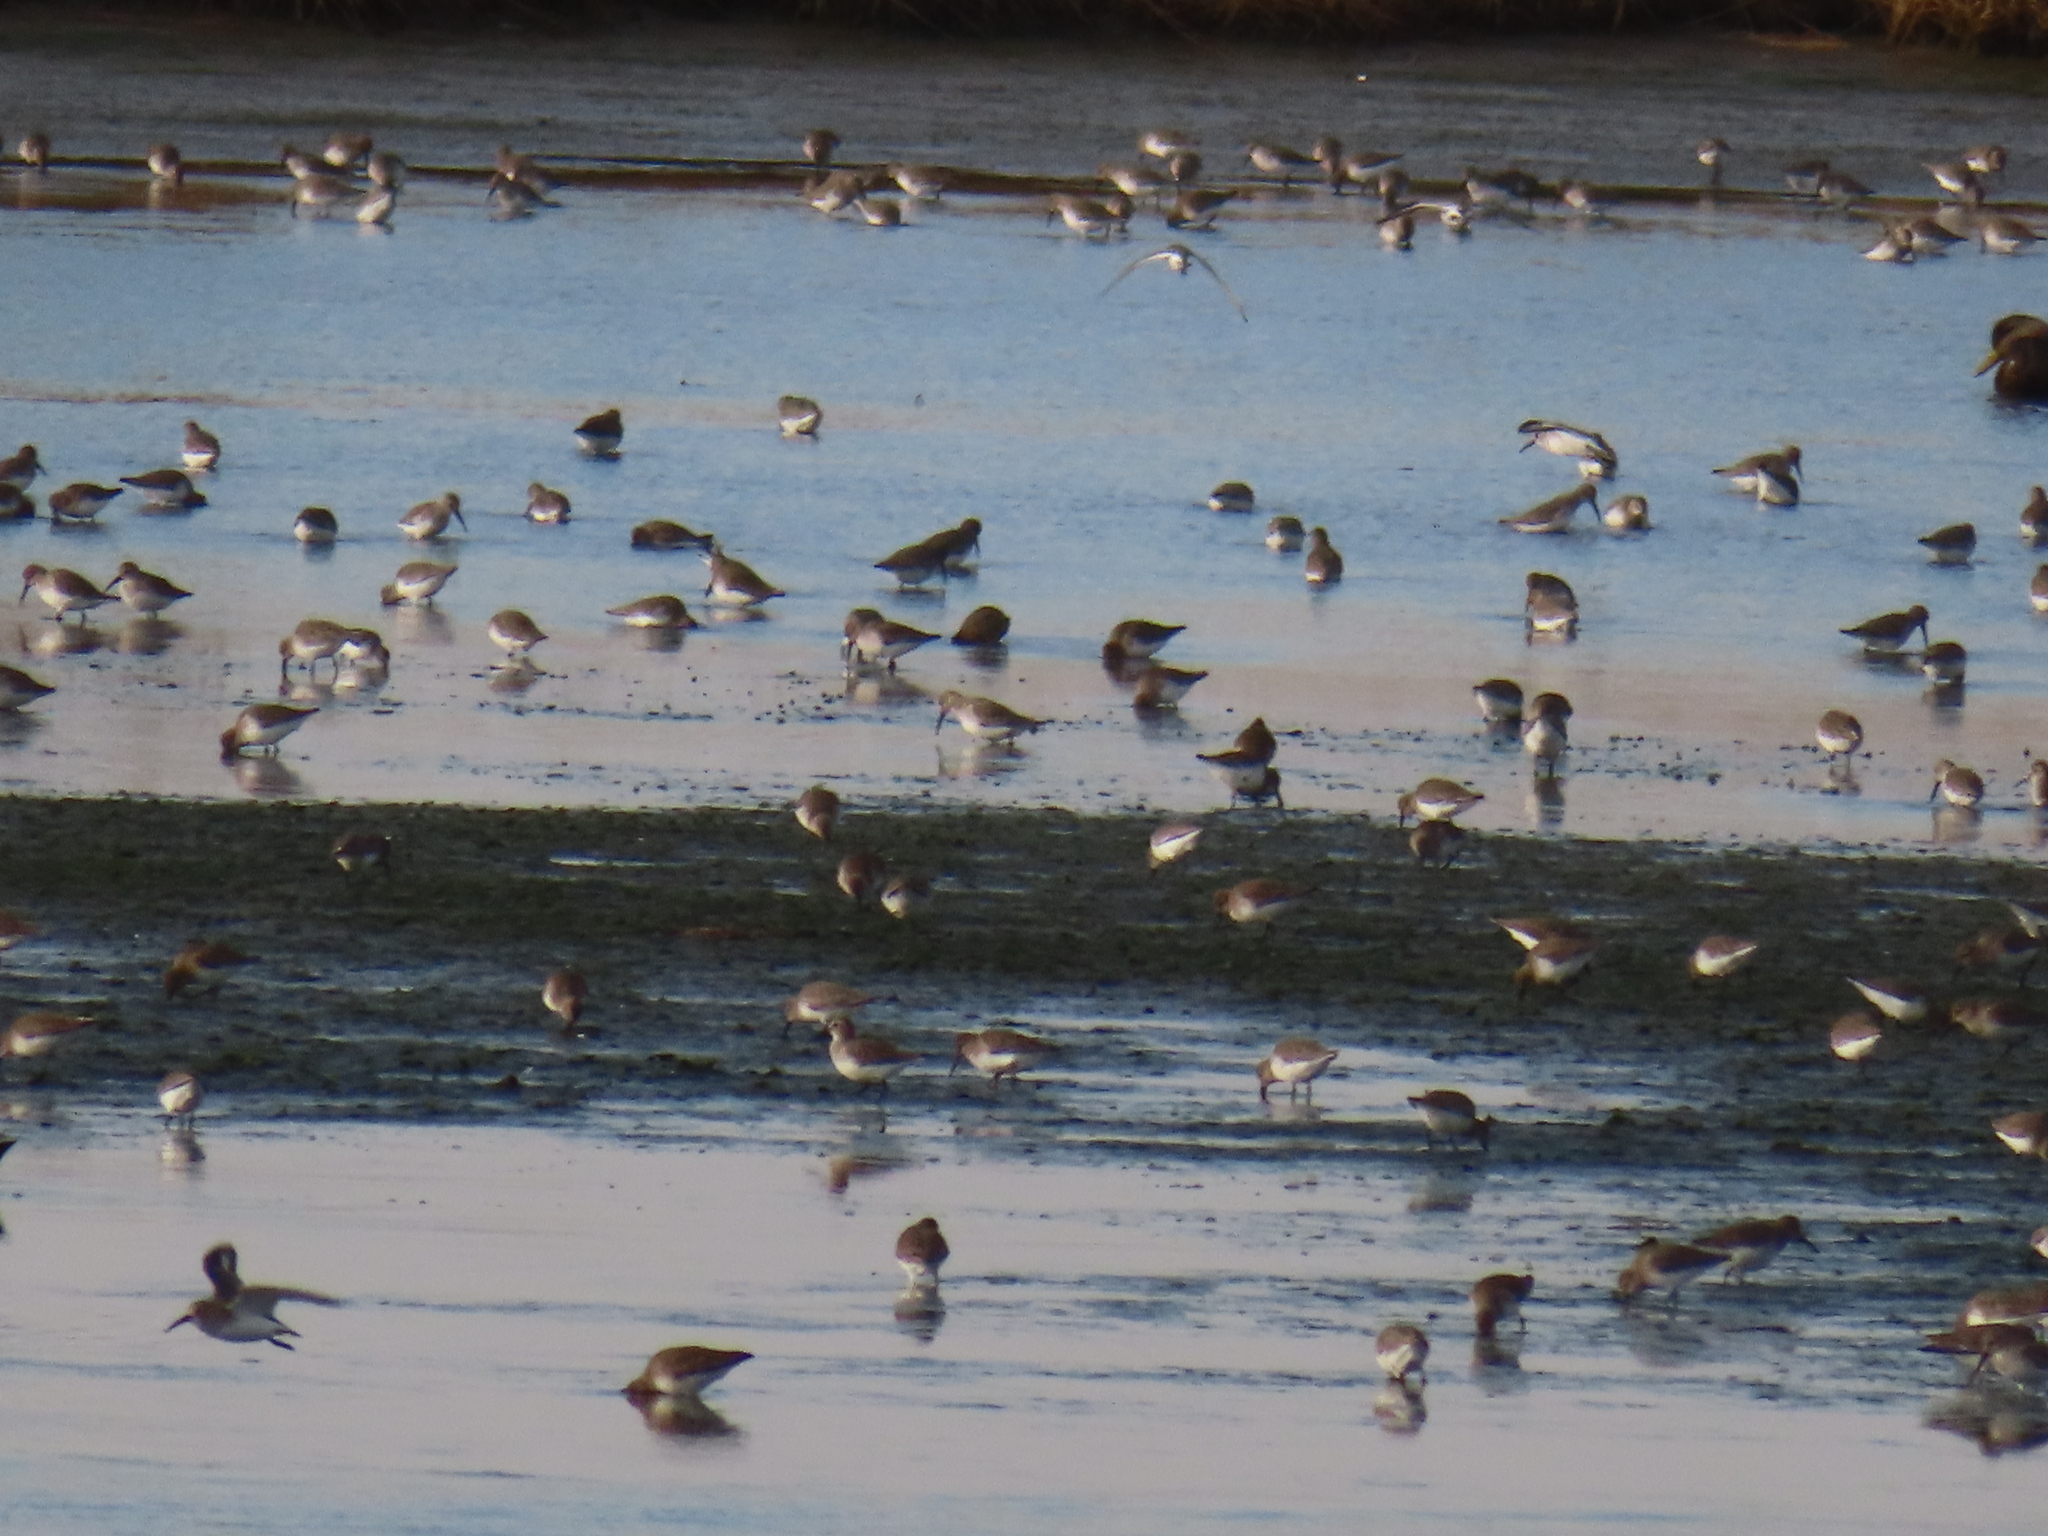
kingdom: Animalia
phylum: Chordata
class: Aves
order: Charadriiformes
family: Scolopacidae
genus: Calidris
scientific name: Calidris alpina
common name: Dunlin
